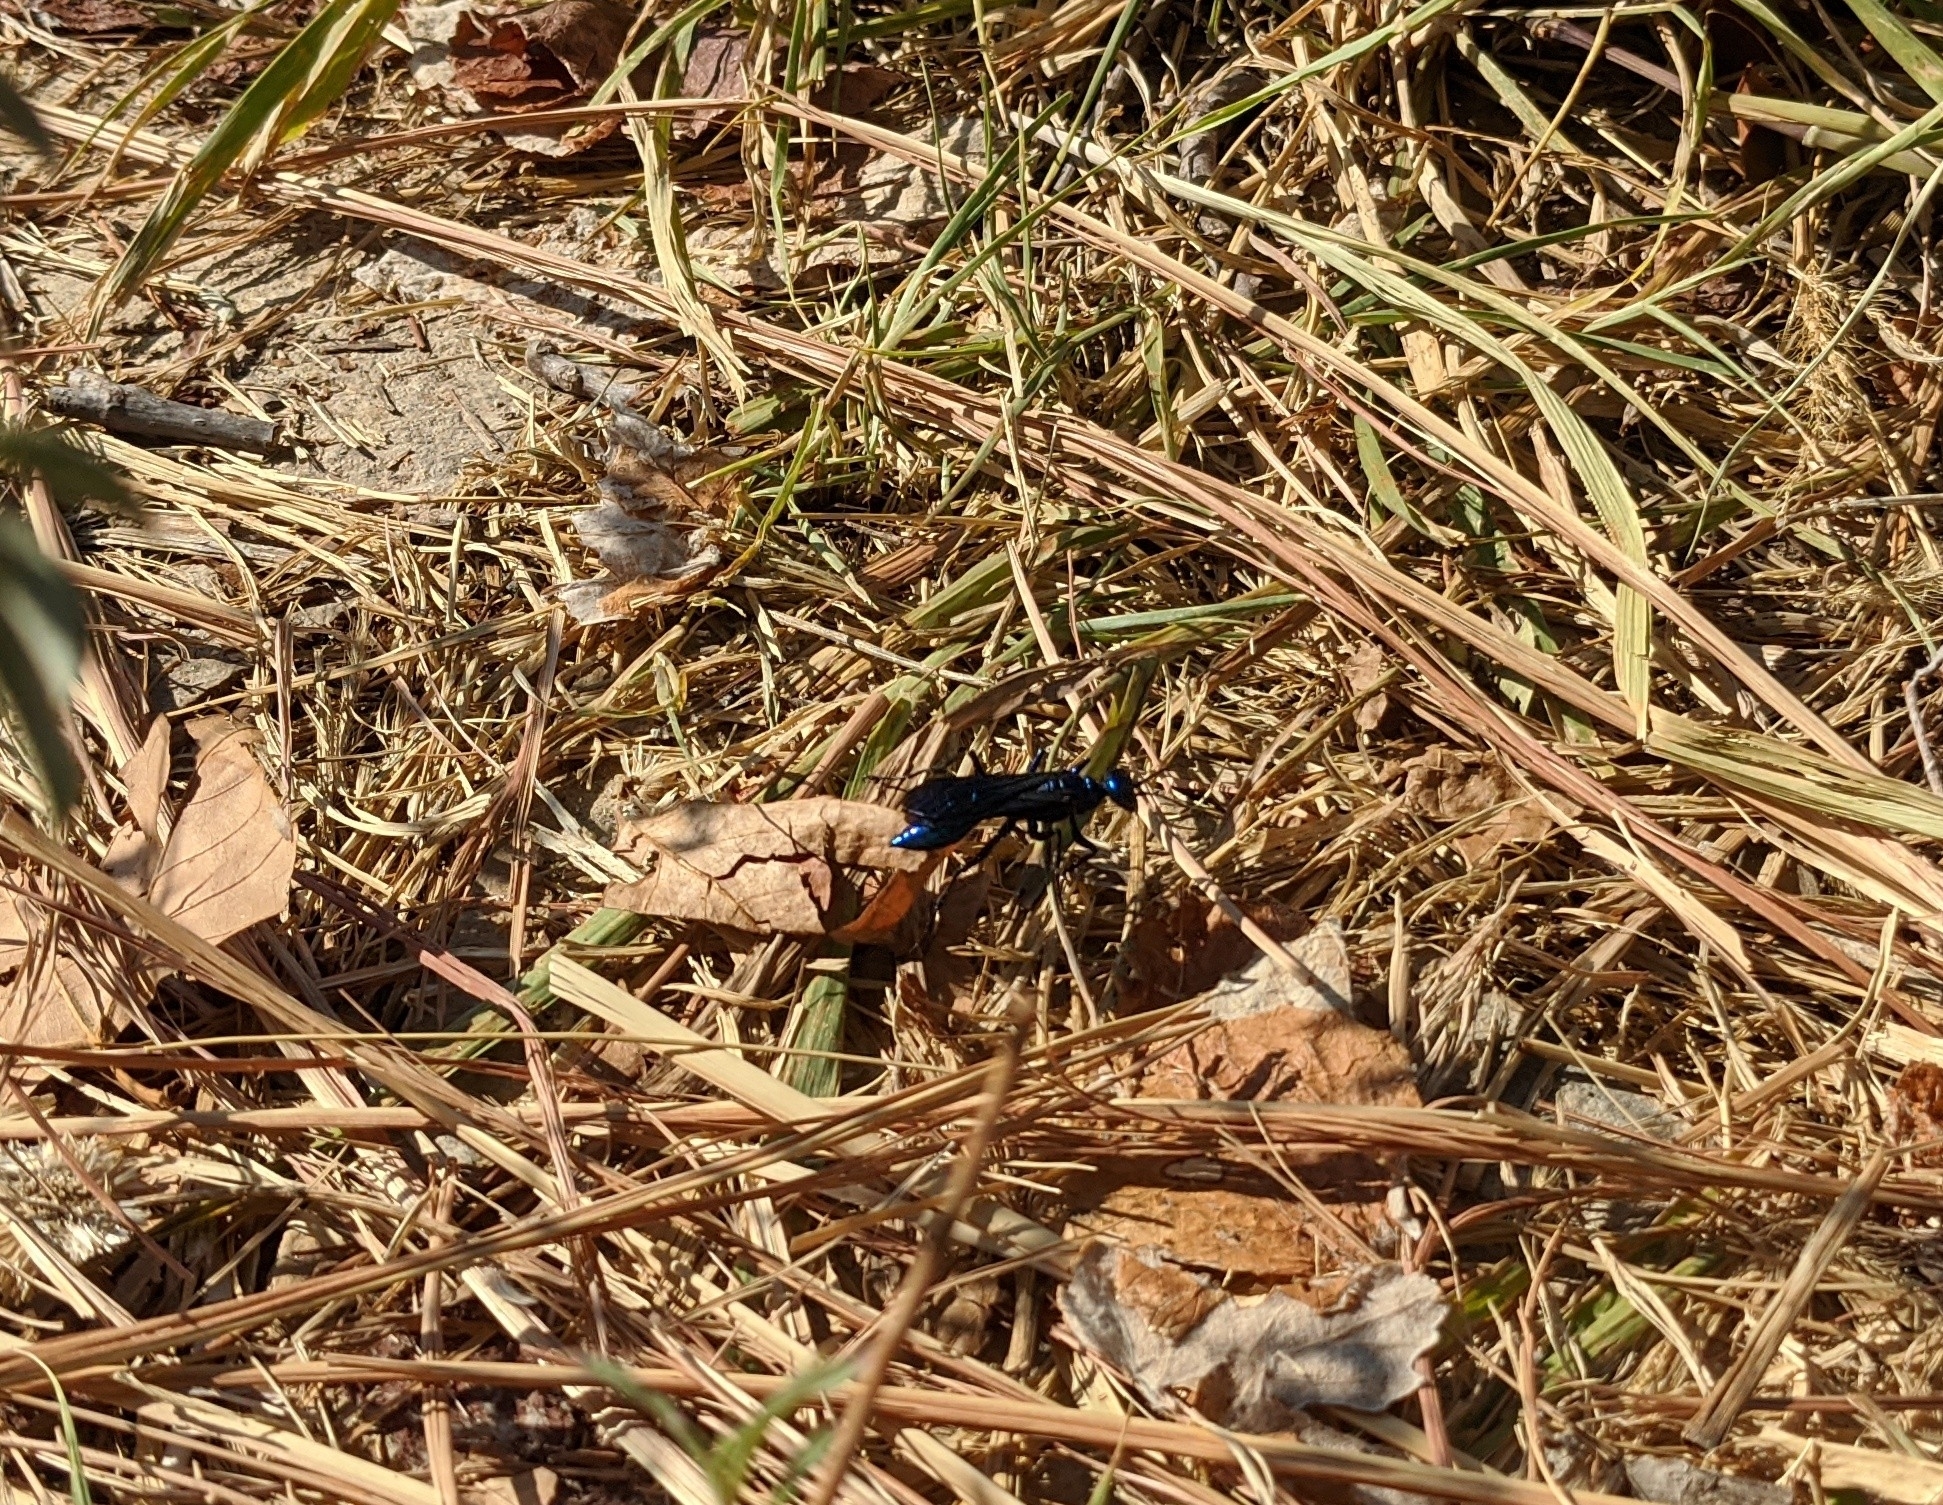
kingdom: Animalia
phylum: Arthropoda
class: Insecta
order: Hymenoptera
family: Sphecidae
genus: Chlorion
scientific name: Chlorion cyaneum
